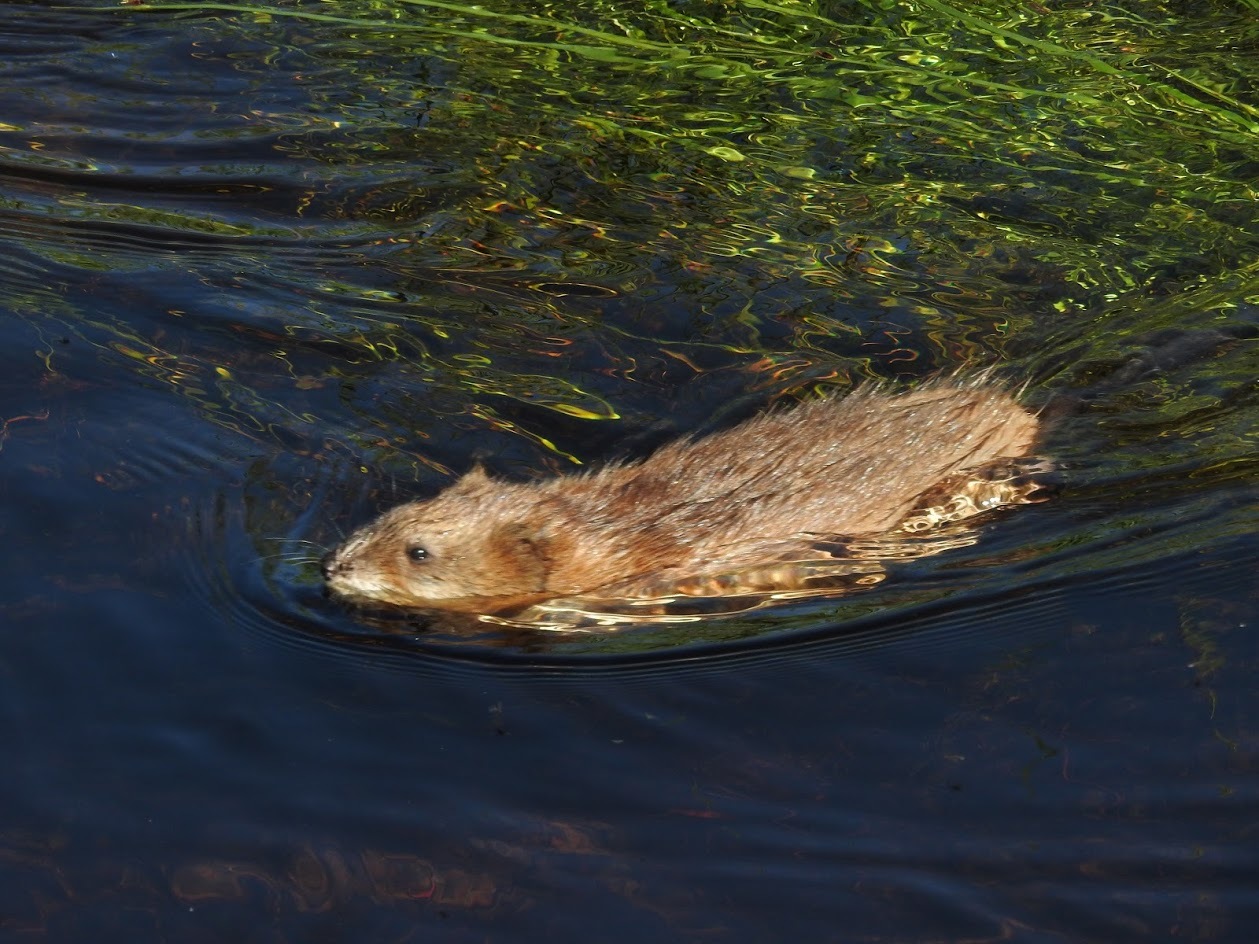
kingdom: Animalia
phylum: Chordata
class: Mammalia
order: Rodentia
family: Cricetidae
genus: Ondatra
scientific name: Ondatra zibethicus
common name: Muskrat
